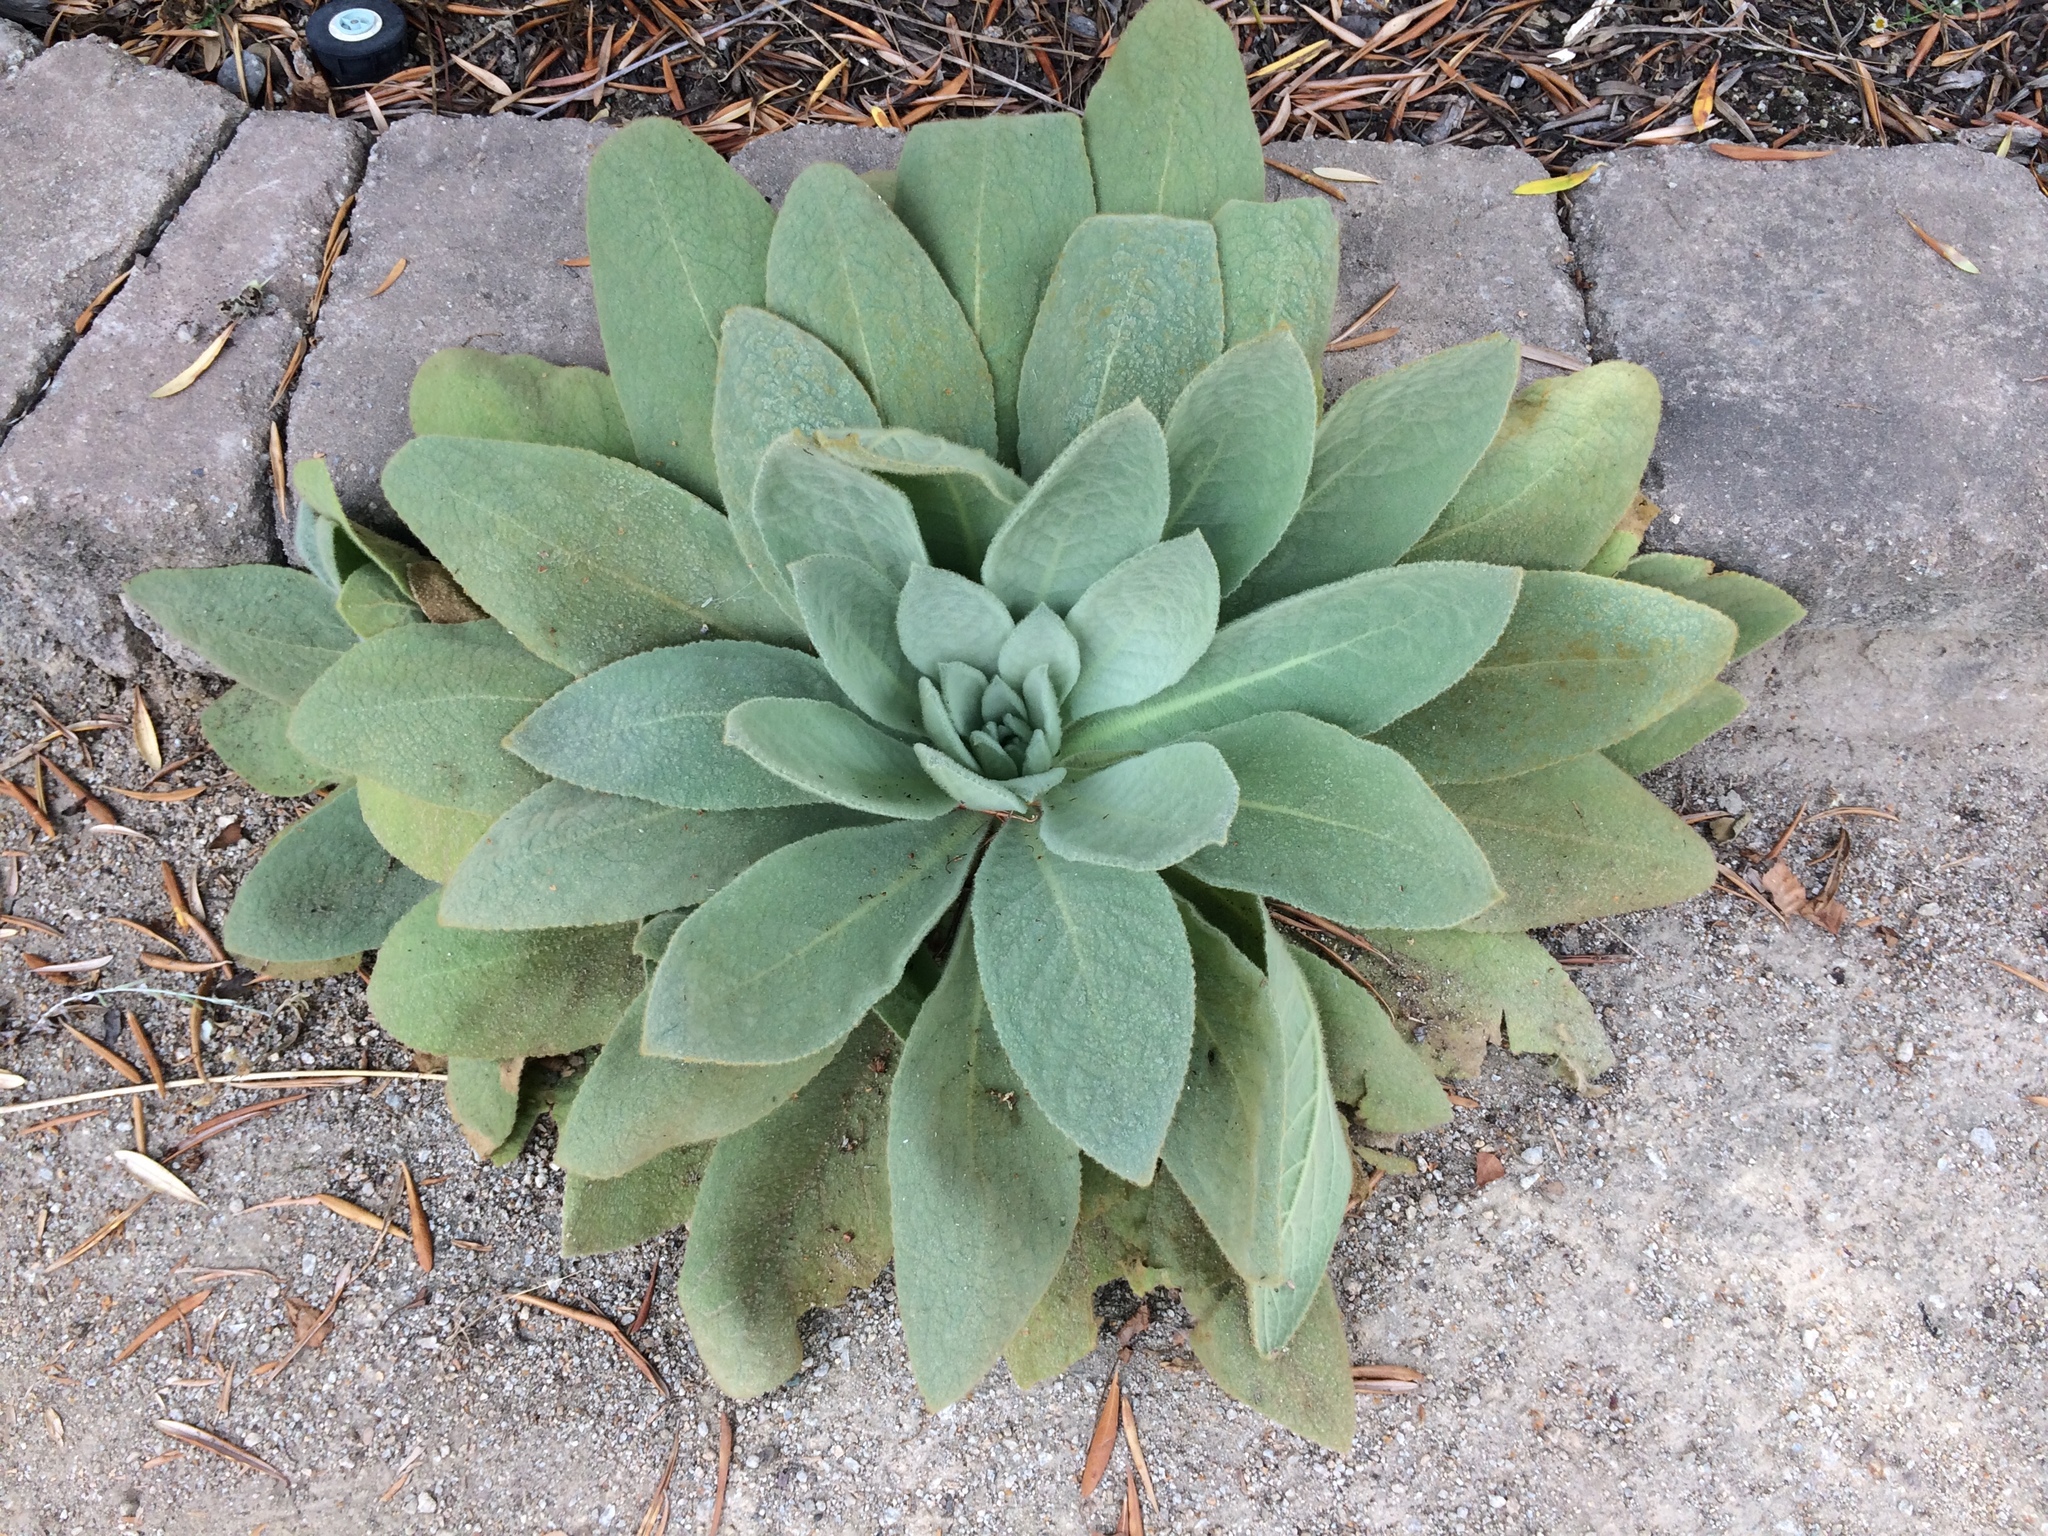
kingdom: Plantae
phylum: Tracheophyta
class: Magnoliopsida
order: Lamiales
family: Scrophulariaceae
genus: Verbascum
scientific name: Verbascum thapsus
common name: Common mullein
